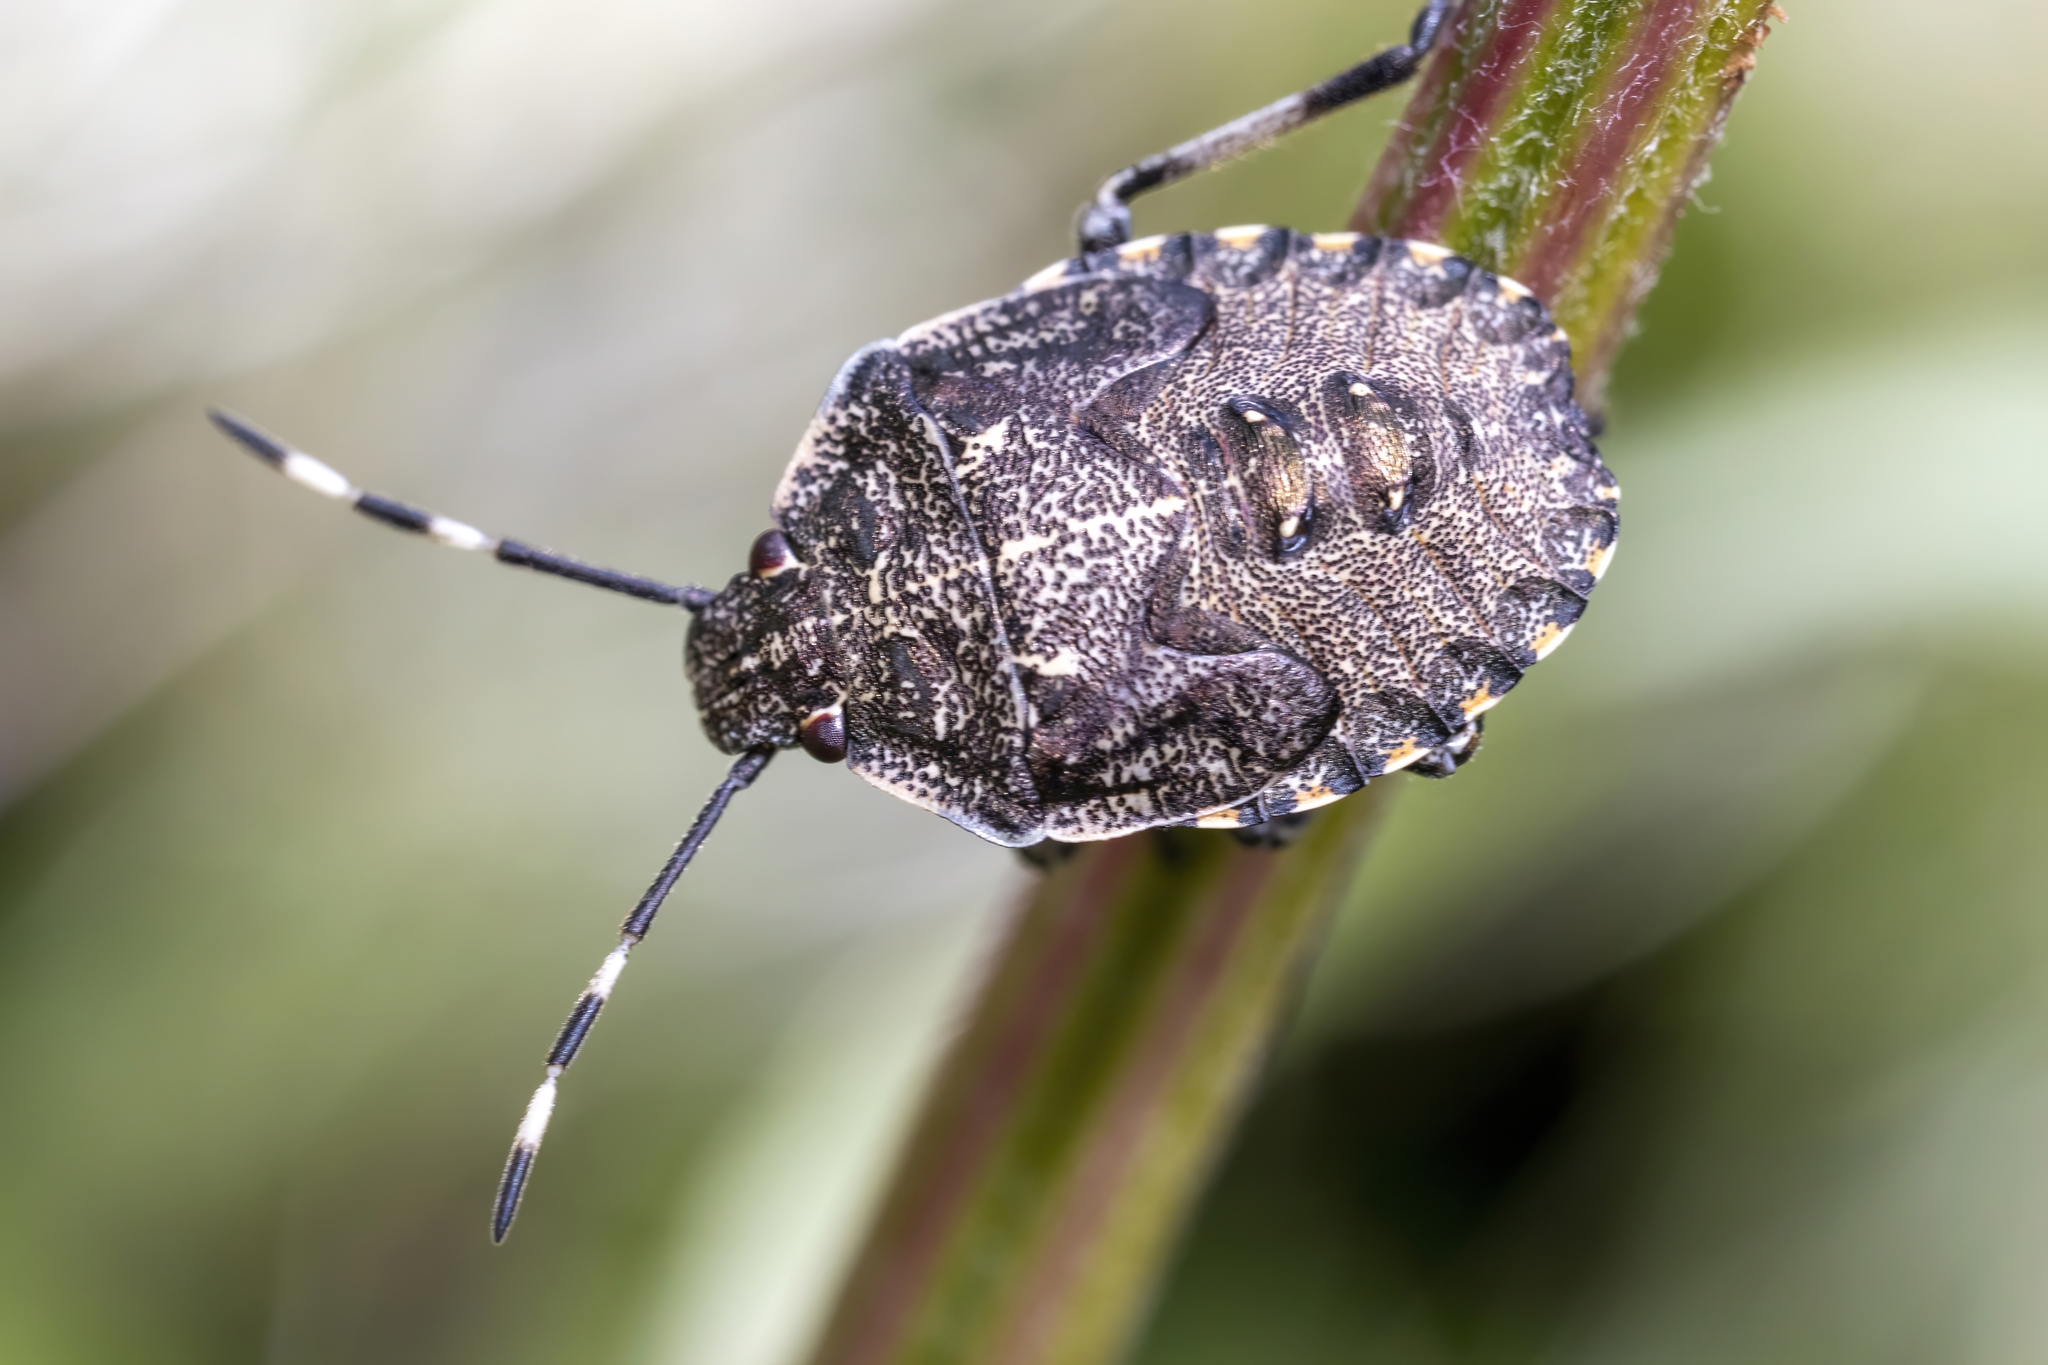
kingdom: Animalia
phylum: Arthropoda
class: Insecta
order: Hemiptera
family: Pentatomidae
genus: Rhaphigaster
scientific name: Rhaphigaster nebulosa
